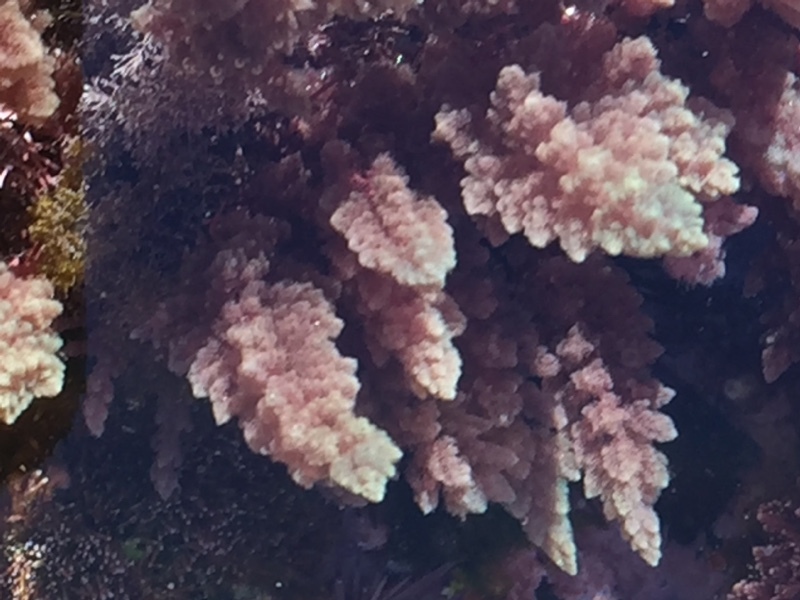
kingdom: Plantae
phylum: Rhodophyta
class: Florideophyceae
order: Bonnemaisoniales
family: Bonnemaisoniaceae
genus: Asparagopsis
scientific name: Asparagopsis taxiformis
